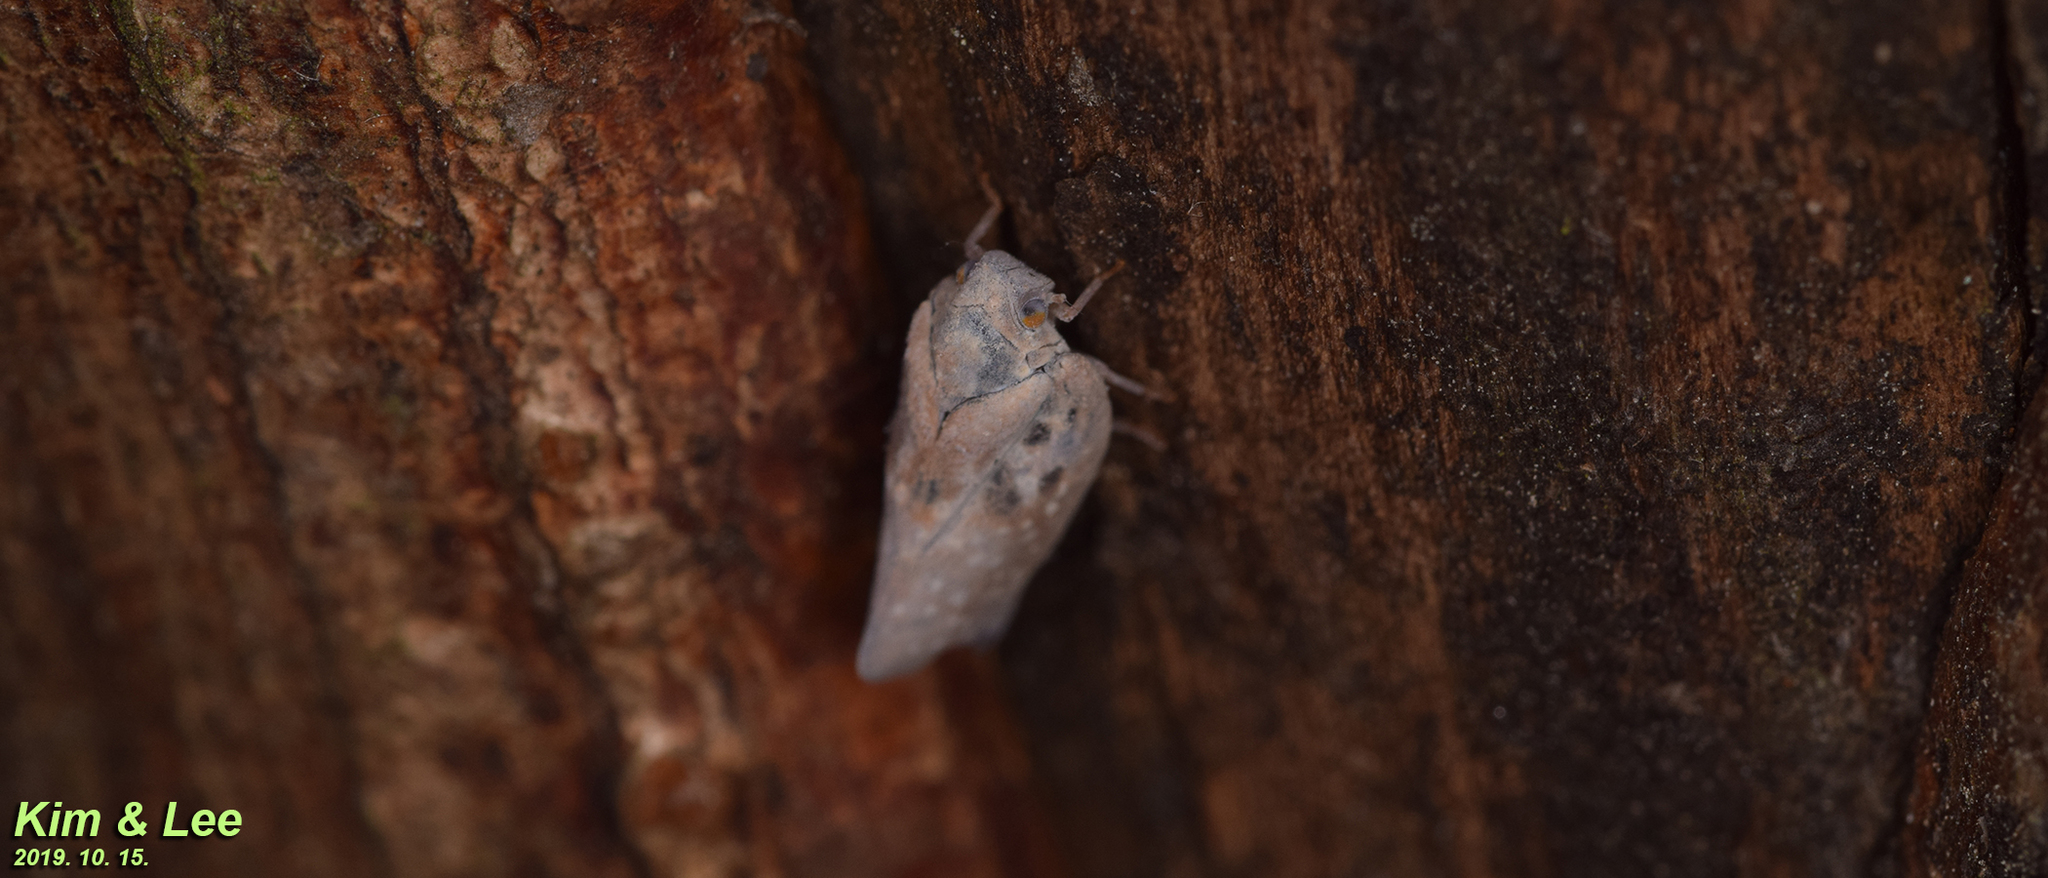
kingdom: Animalia
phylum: Arthropoda
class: Insecta
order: Hemiptera
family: Flatidae
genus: Metcalfa
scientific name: Metcalfa pruinosa
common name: Citrus flatid planthopper
